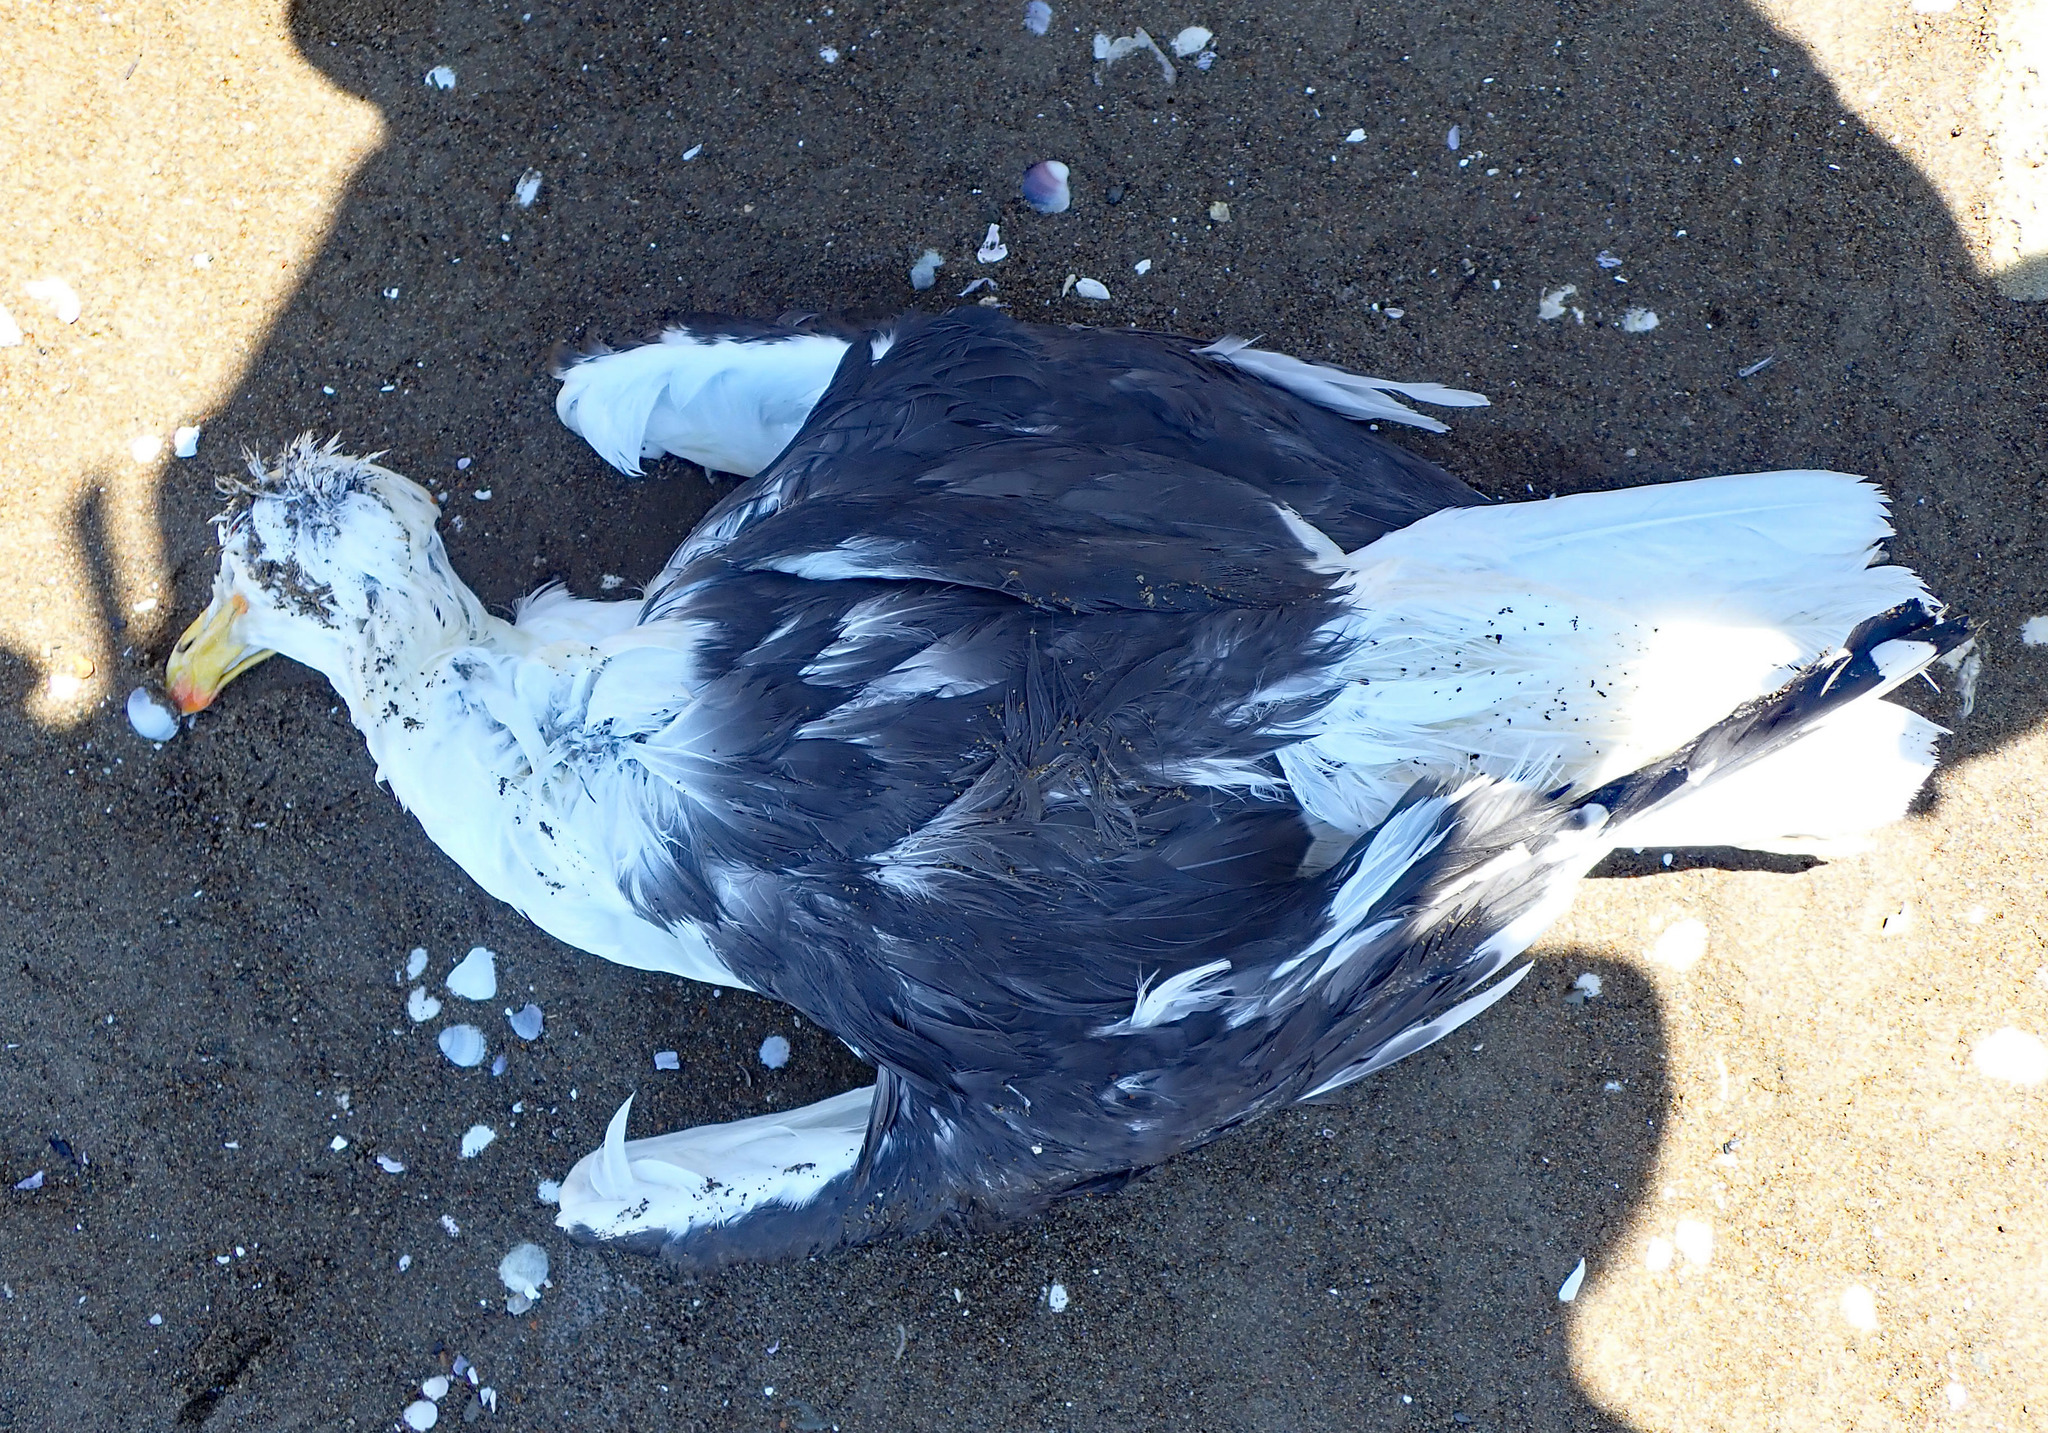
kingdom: Animalia
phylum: Chordata
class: Aves
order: Charadriiformes
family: Laridae
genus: Larus
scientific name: Larus dominicanus
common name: Kelp gull
